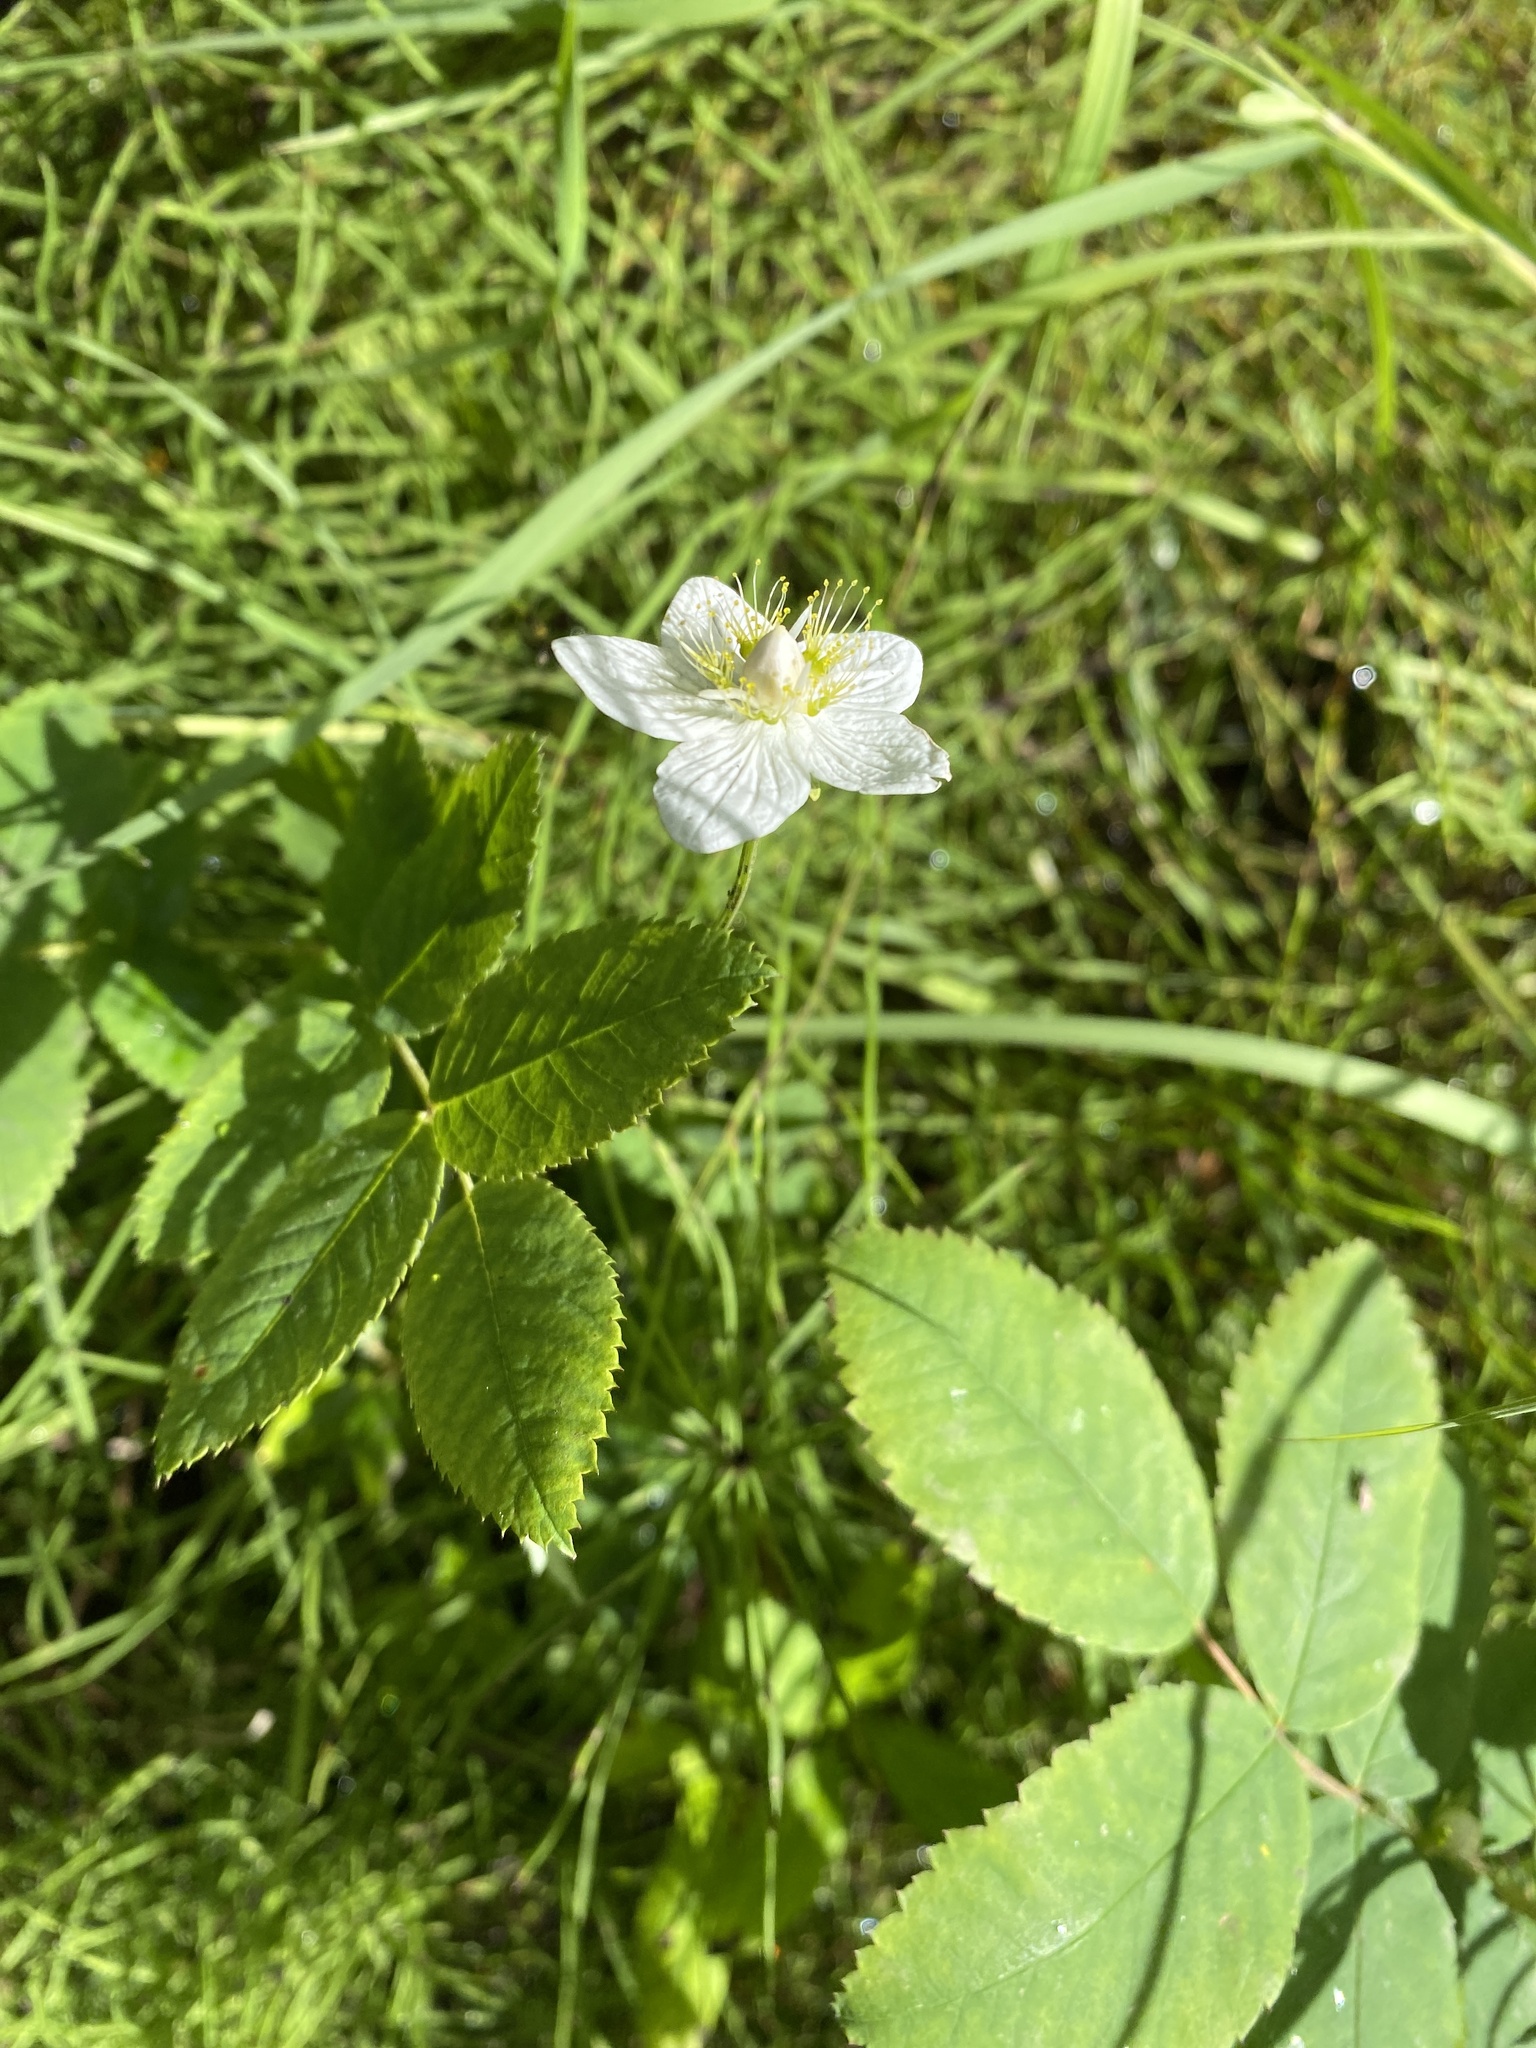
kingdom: Plantae
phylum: Tracheophyta
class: Magnoliopsida
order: Celastrales
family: Parnassiaceae
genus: Parnassia
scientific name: Parnassia palustris
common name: Grass-of-parnassus
